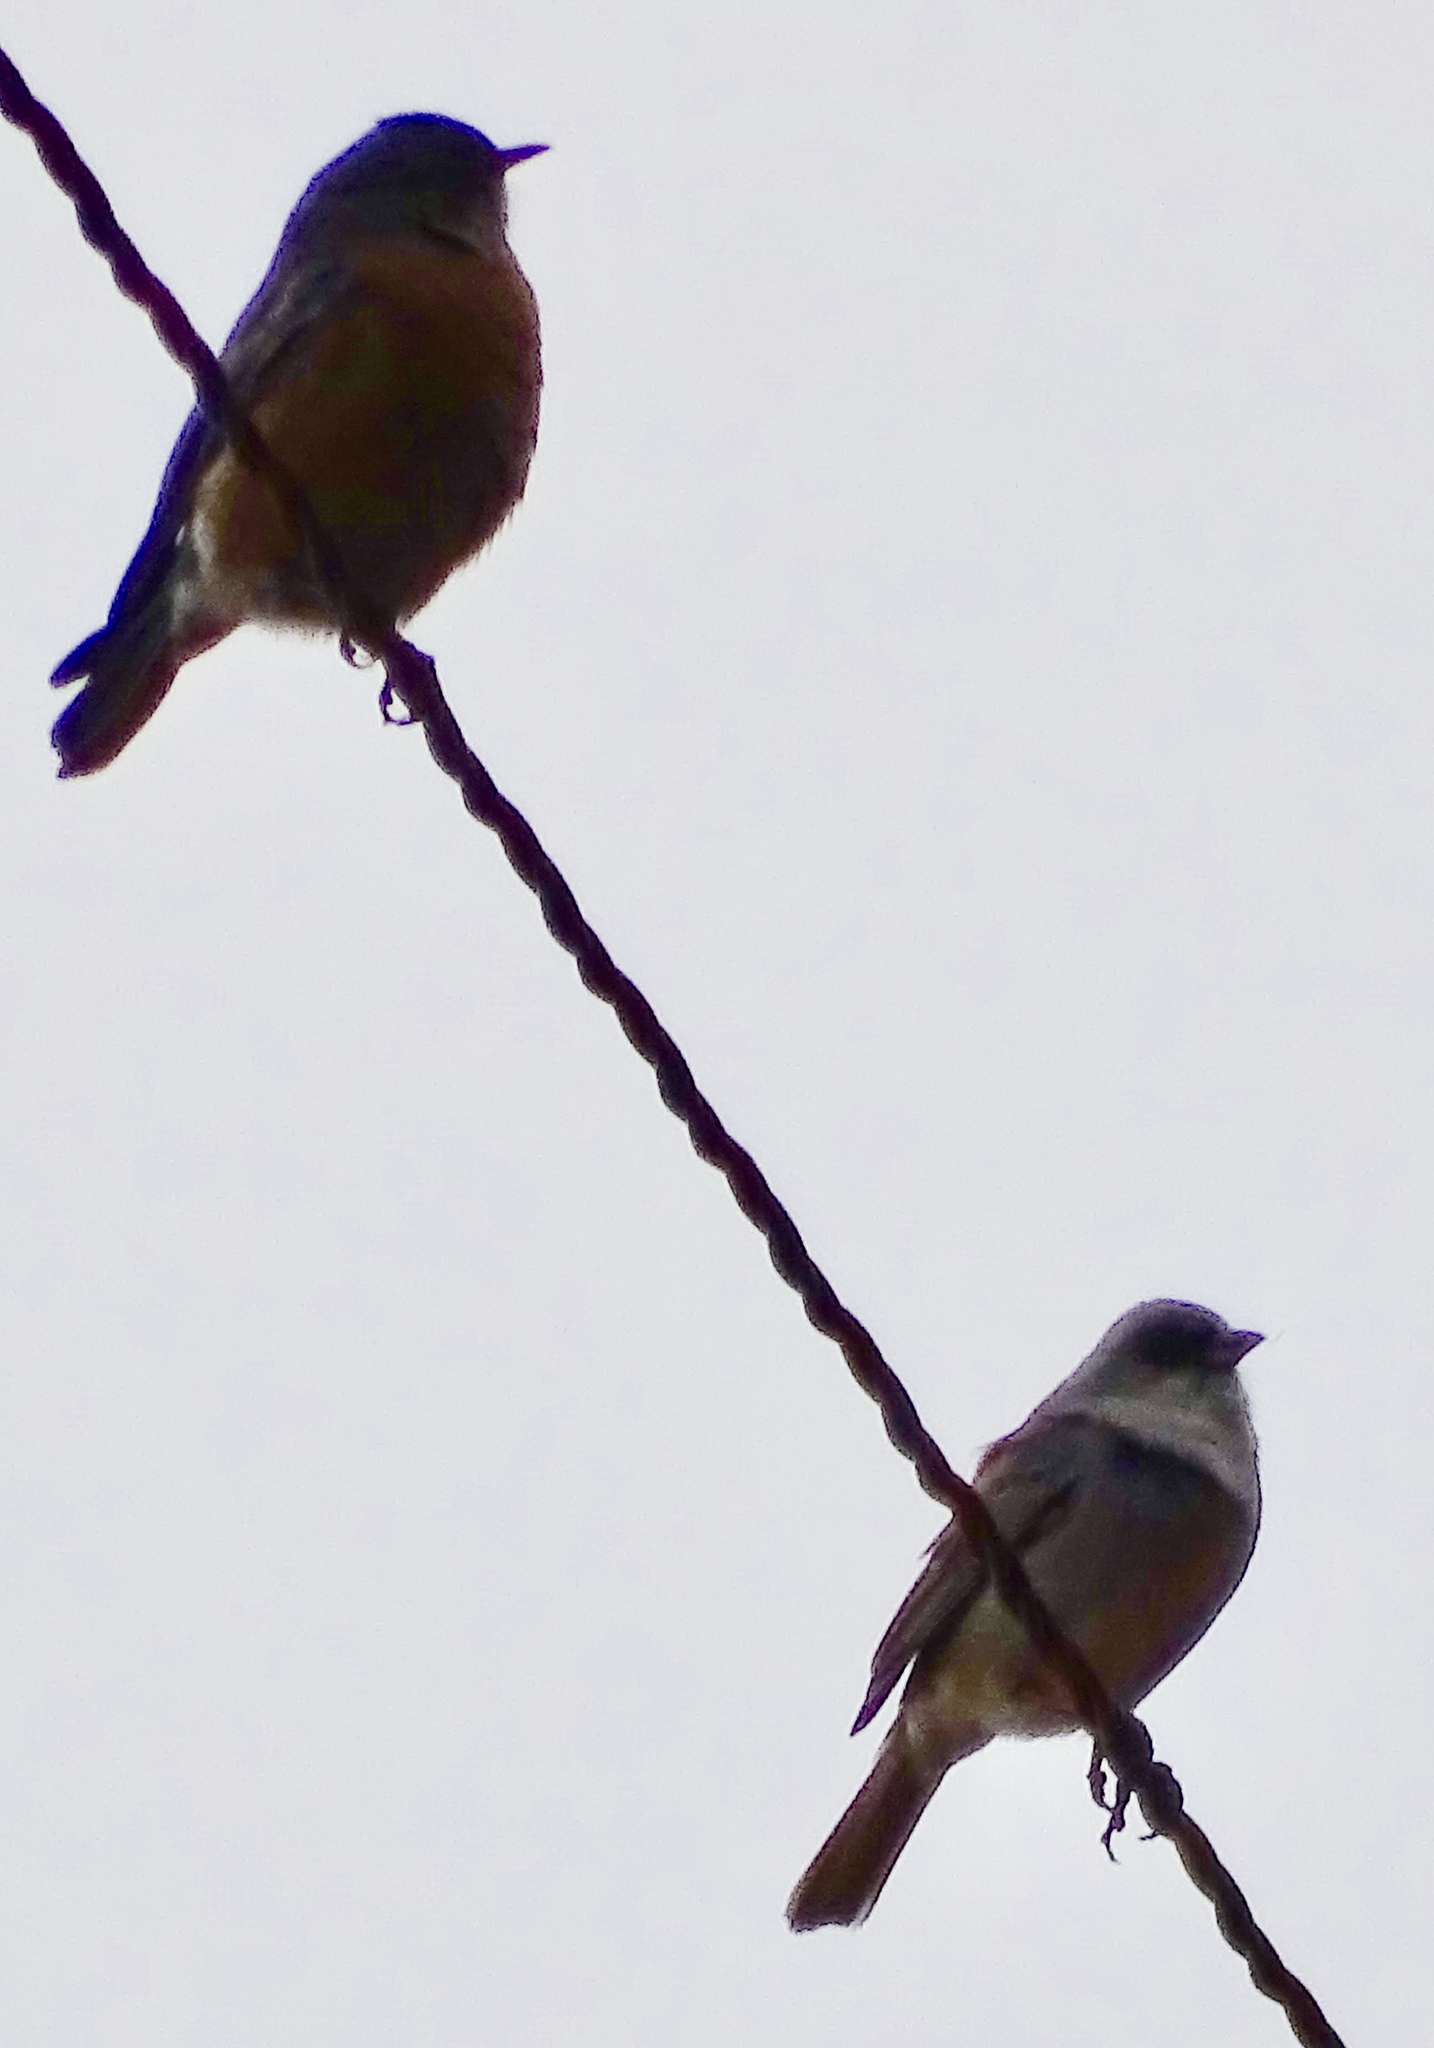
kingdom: Animalia
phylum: Chordata
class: Aves
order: Passeriformes
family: Turdidae
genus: Sialia
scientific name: Sialia sialis
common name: Eastern bluebird
